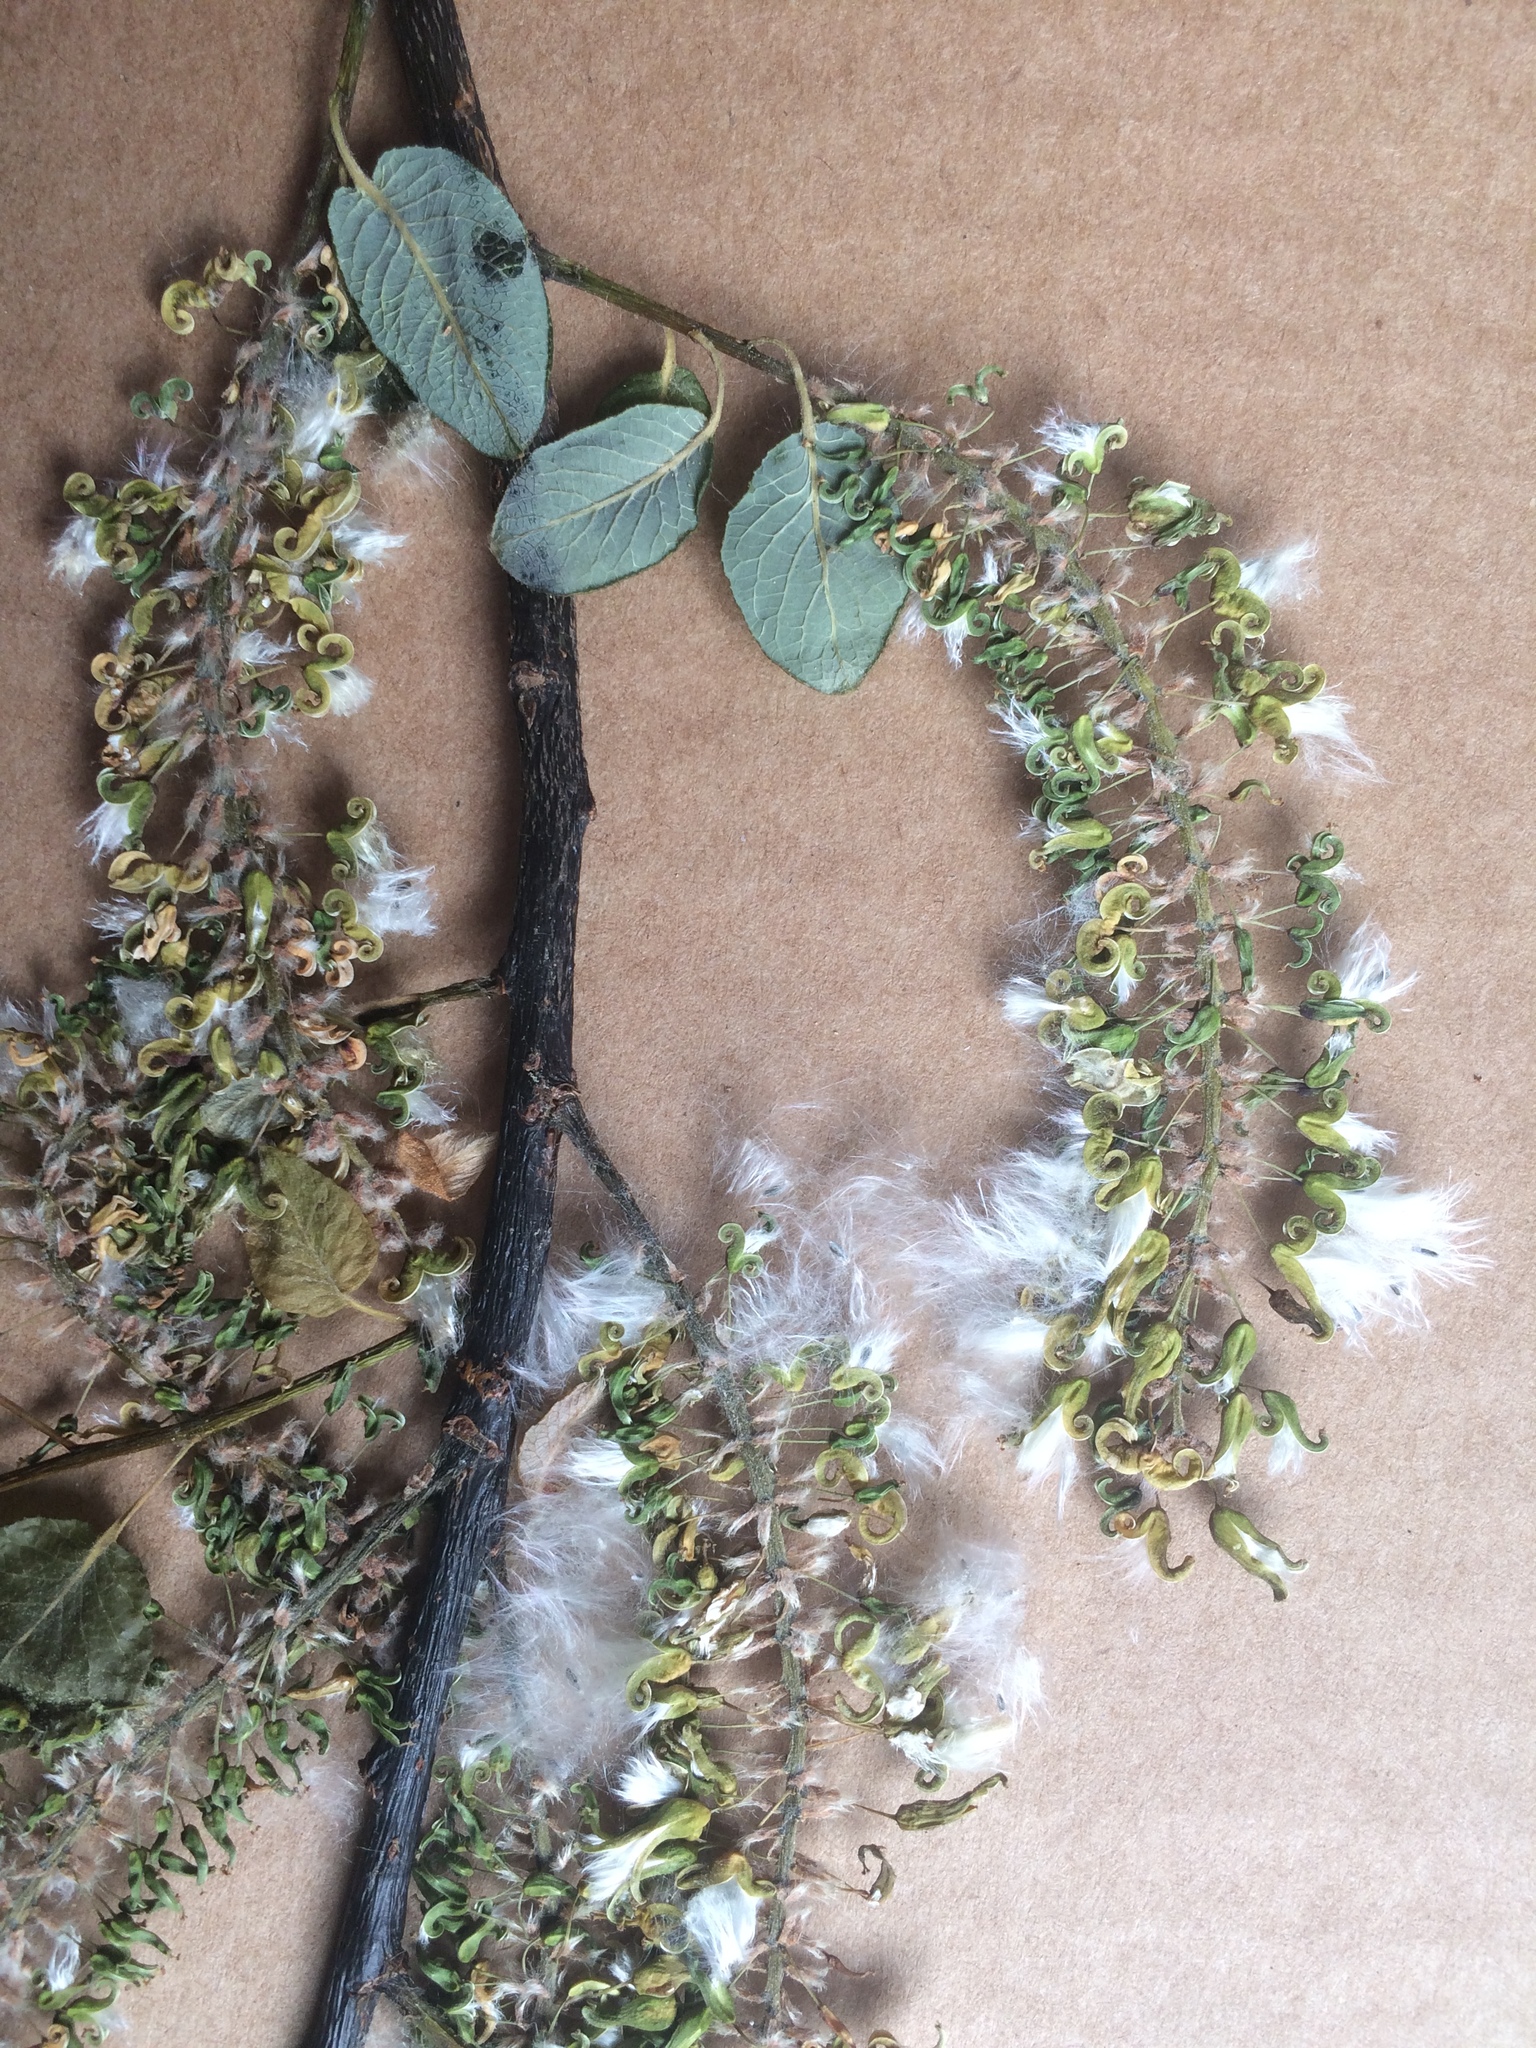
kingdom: Plantae
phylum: Tracheophyta
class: Magnoliopsida
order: Malpighiales
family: Salicaceae
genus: Salix
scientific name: Salix pyrifolia
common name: Balsam willow
